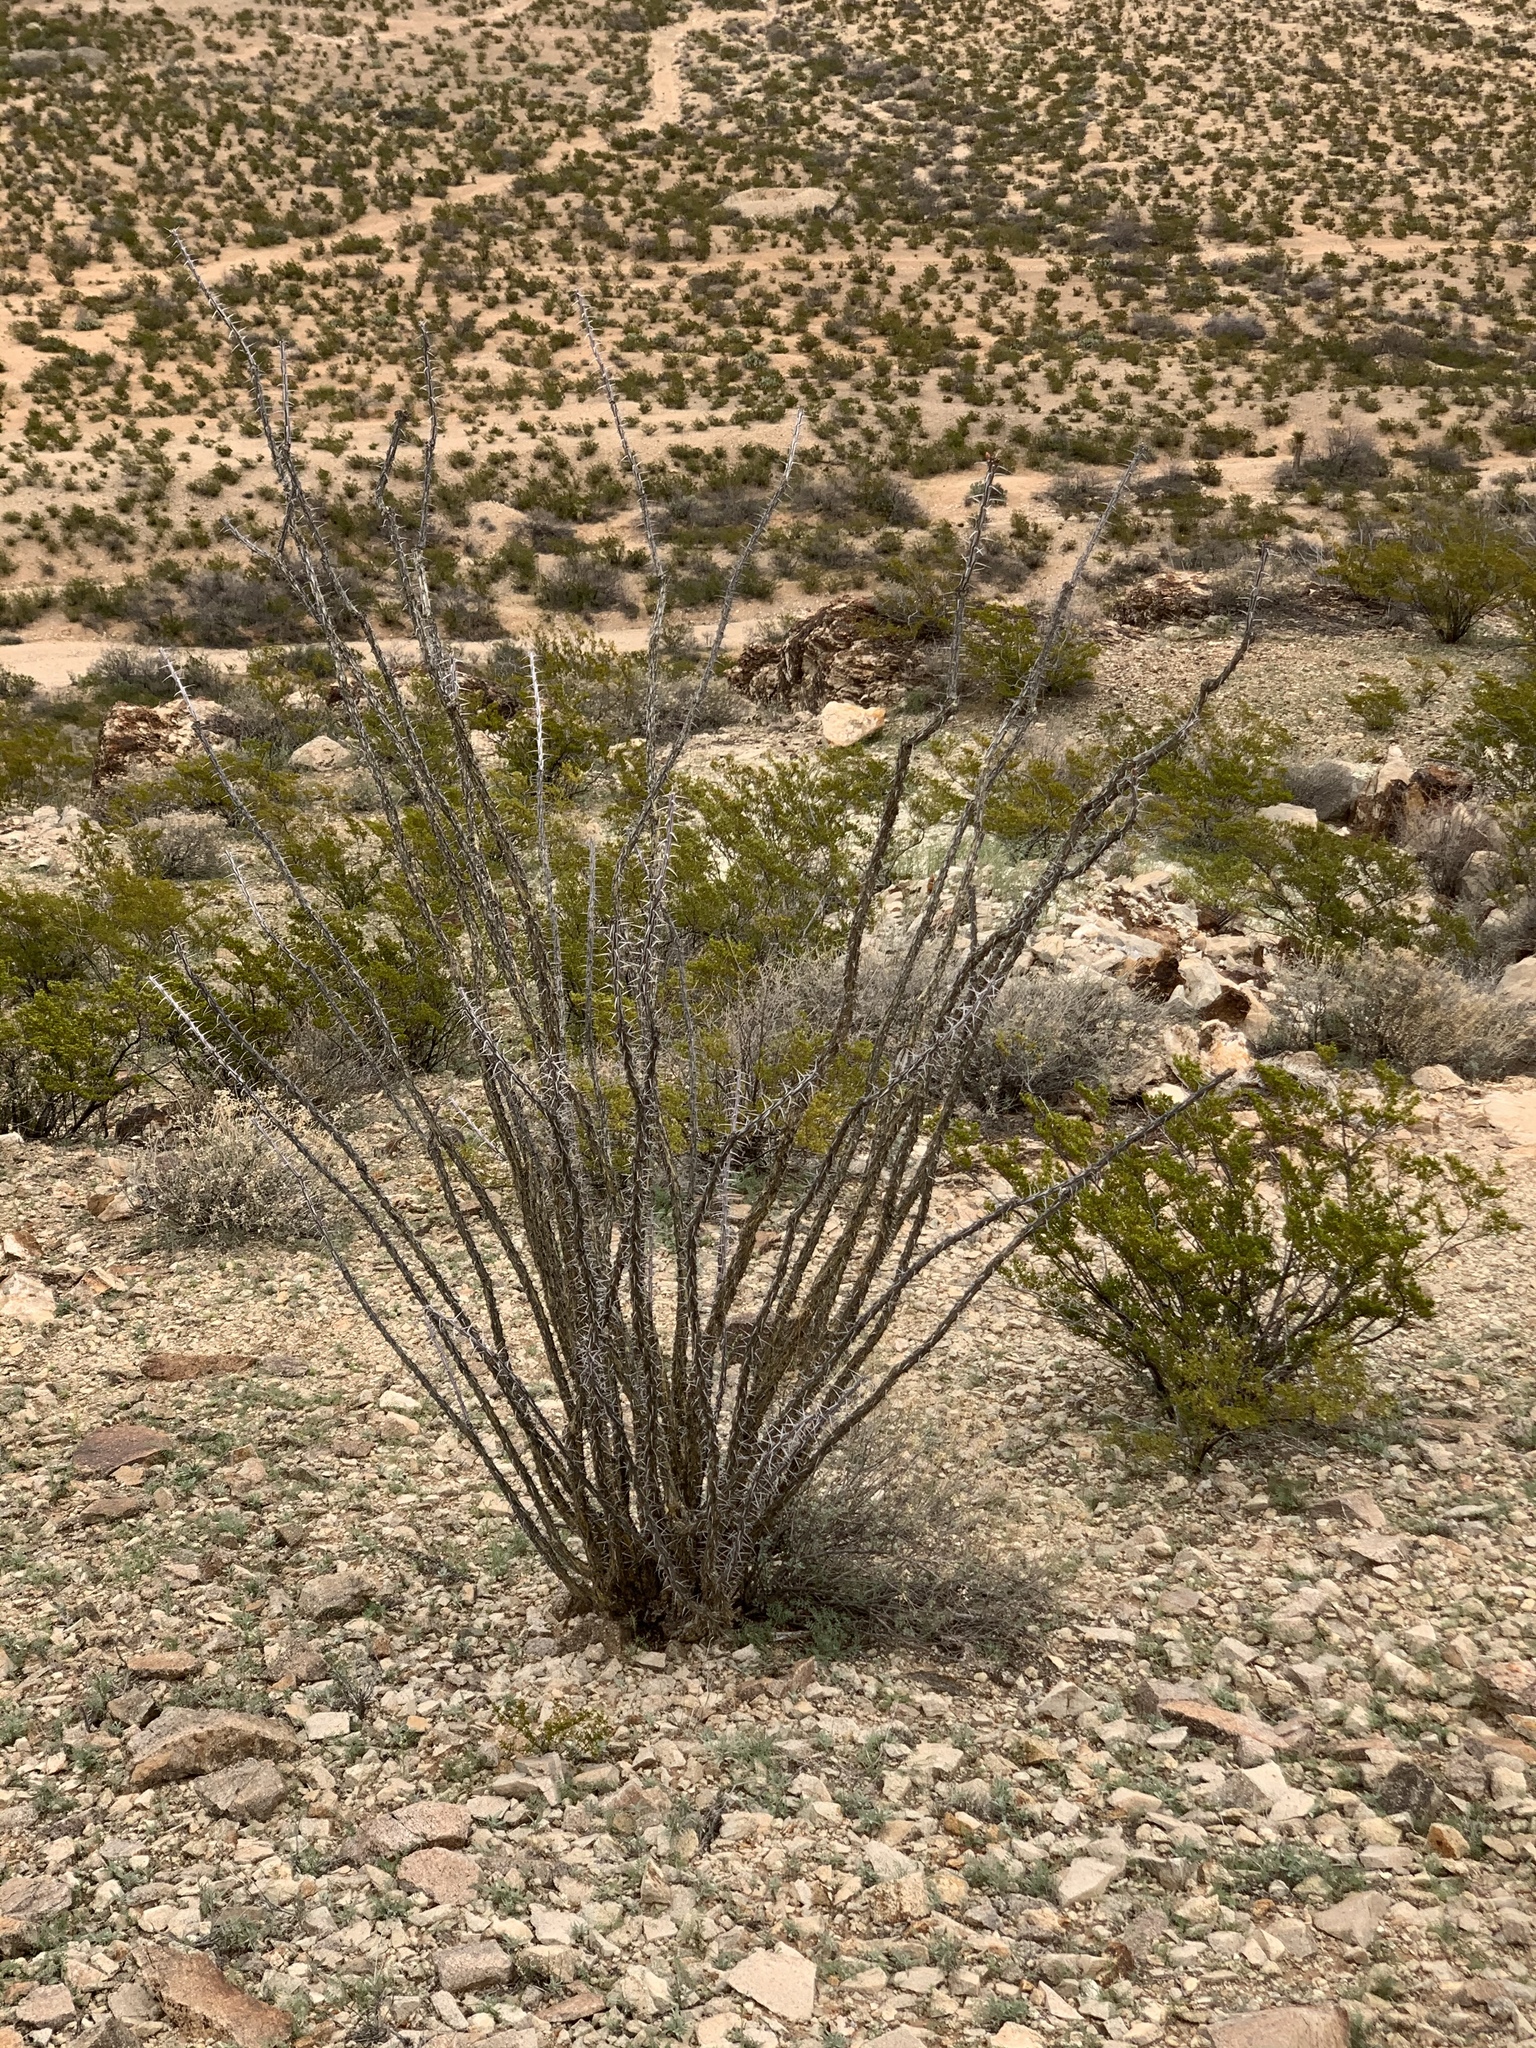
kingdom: Plantae
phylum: Tracheophyta
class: Magnoliopsida
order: Ericales
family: Fouquieriaceae
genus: Fouquieria
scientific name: Fouquieria splendens
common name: Vine-cactus
